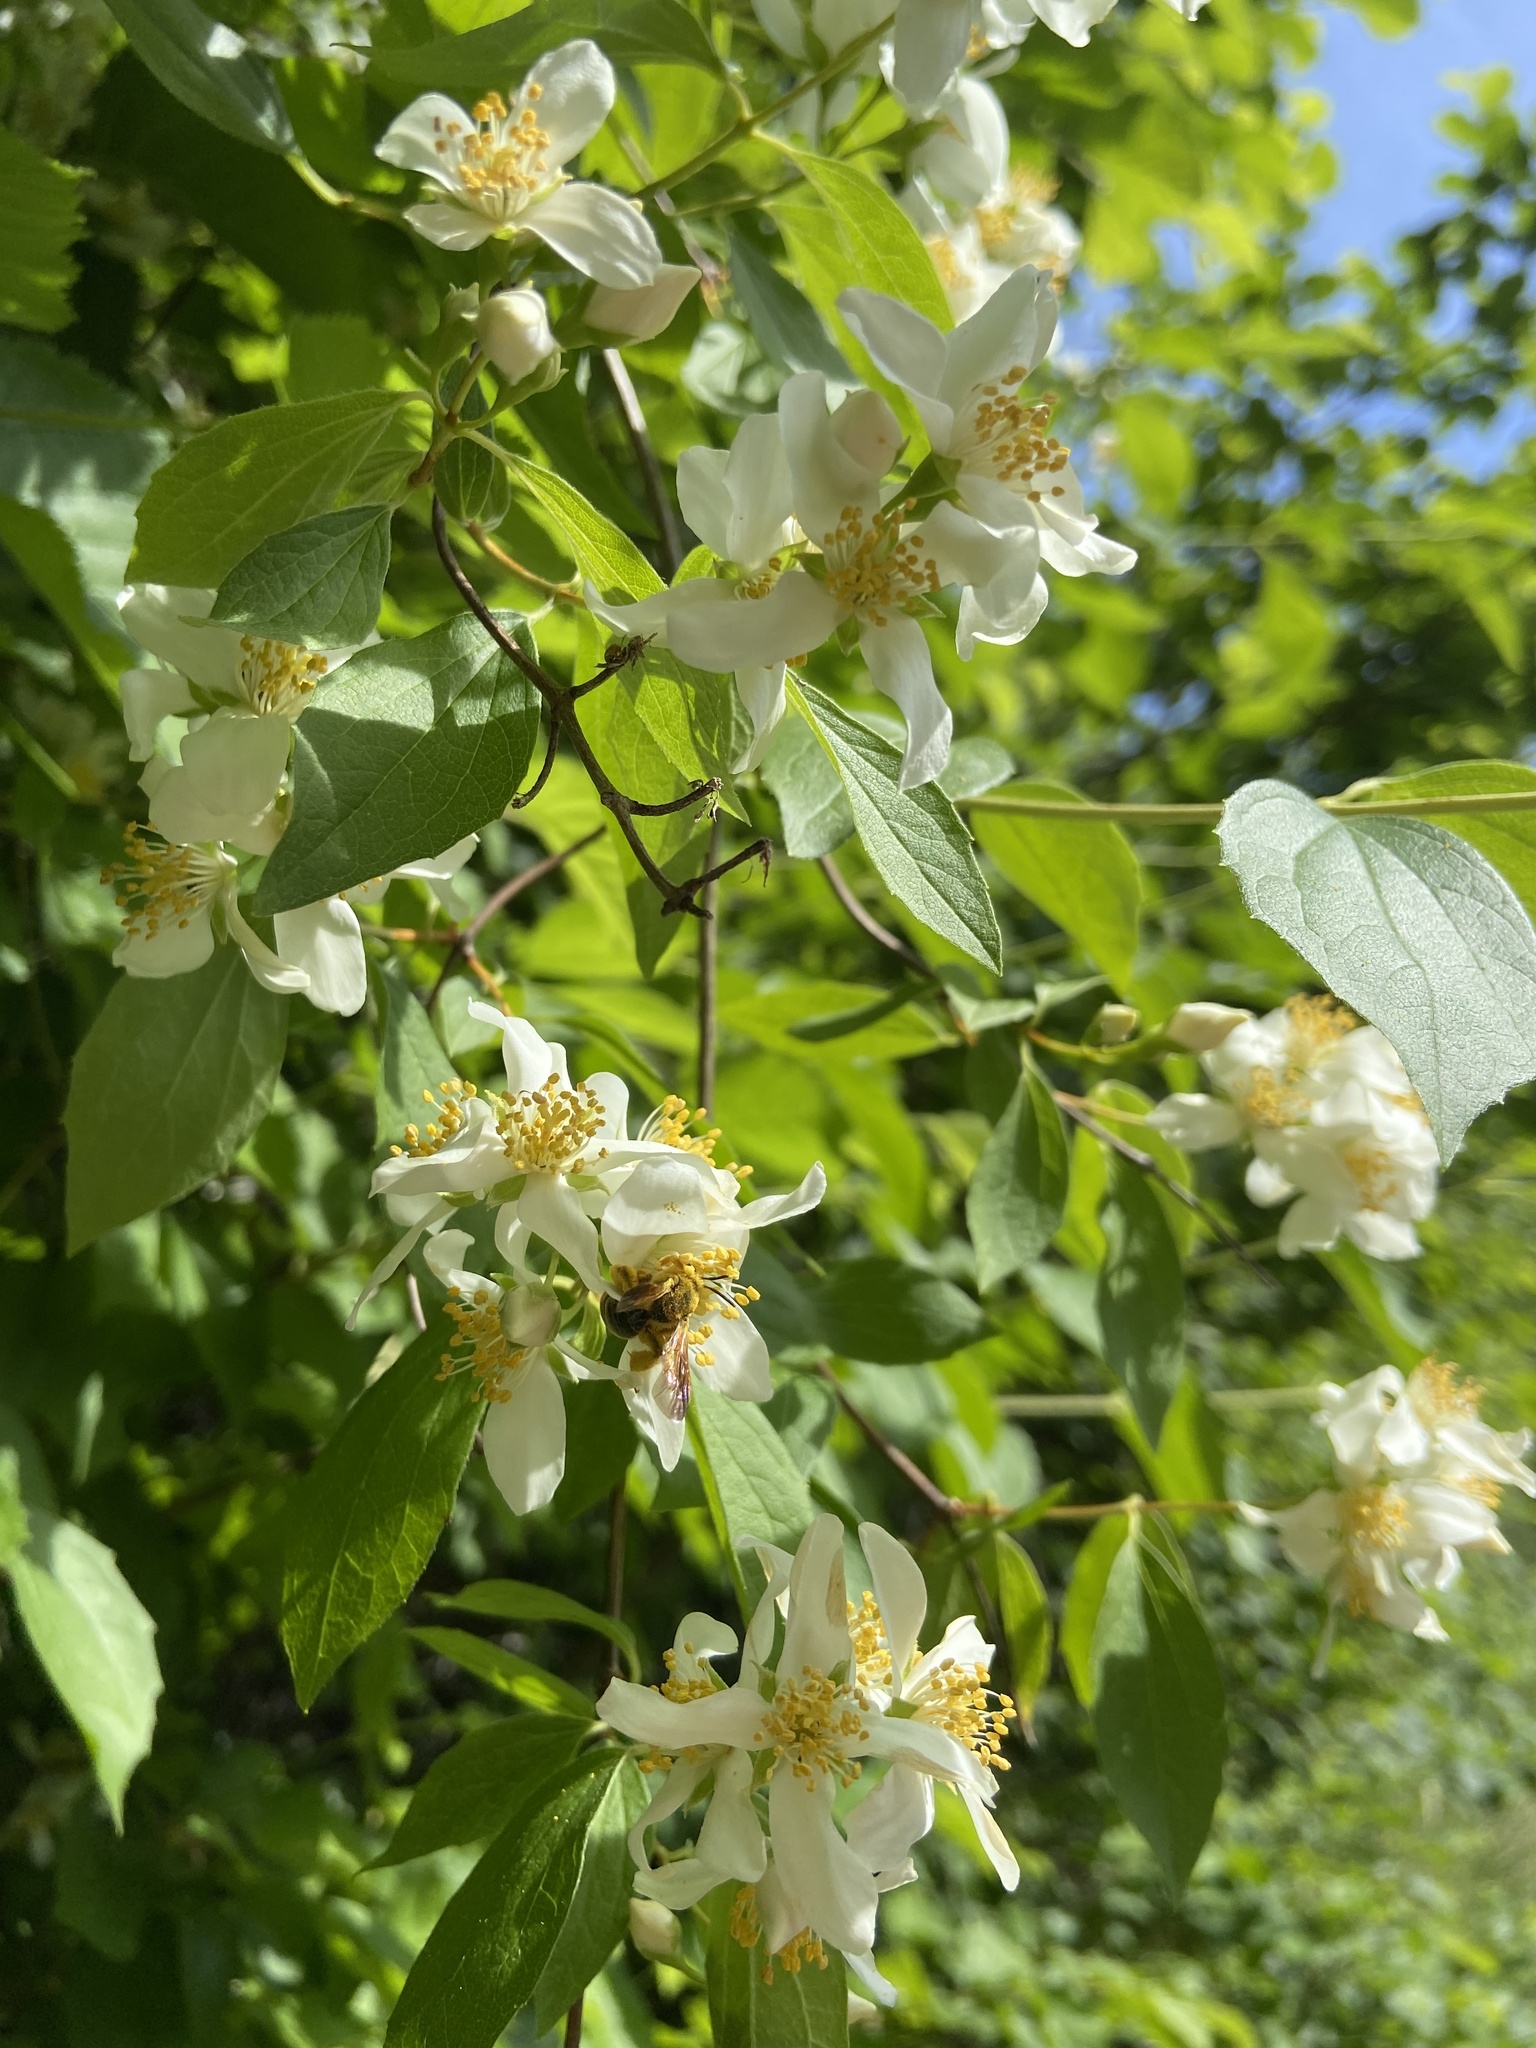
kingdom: Plantae
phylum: Tracheophyta
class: Magnoliopsida
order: Cornales
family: Hydrangeaceae
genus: Philadelphus
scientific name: Philadelphus lewisii
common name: Lewis's mock orange
